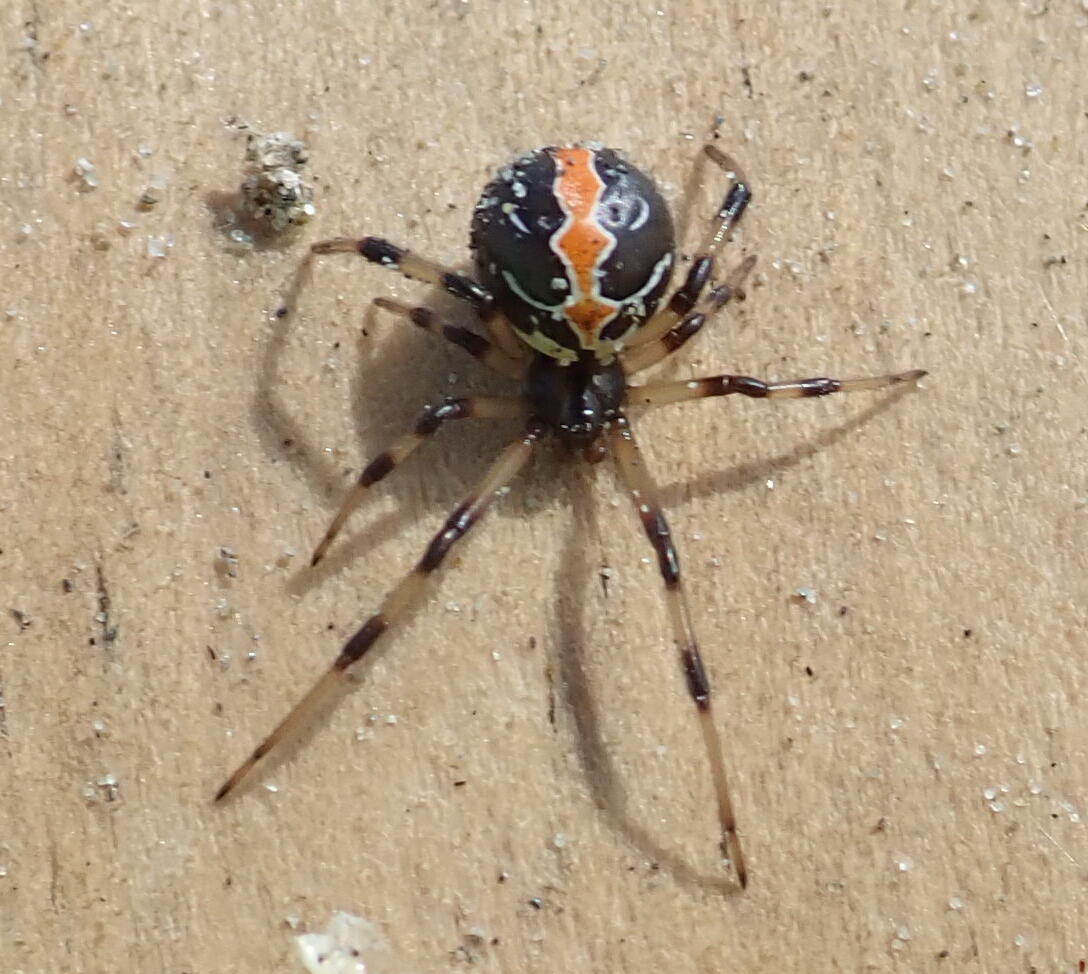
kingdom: Animalia
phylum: Arthropoda
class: Arachnida
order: Araneae
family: Theridiidae
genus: Latrodectus
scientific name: Latrodectus katipo
